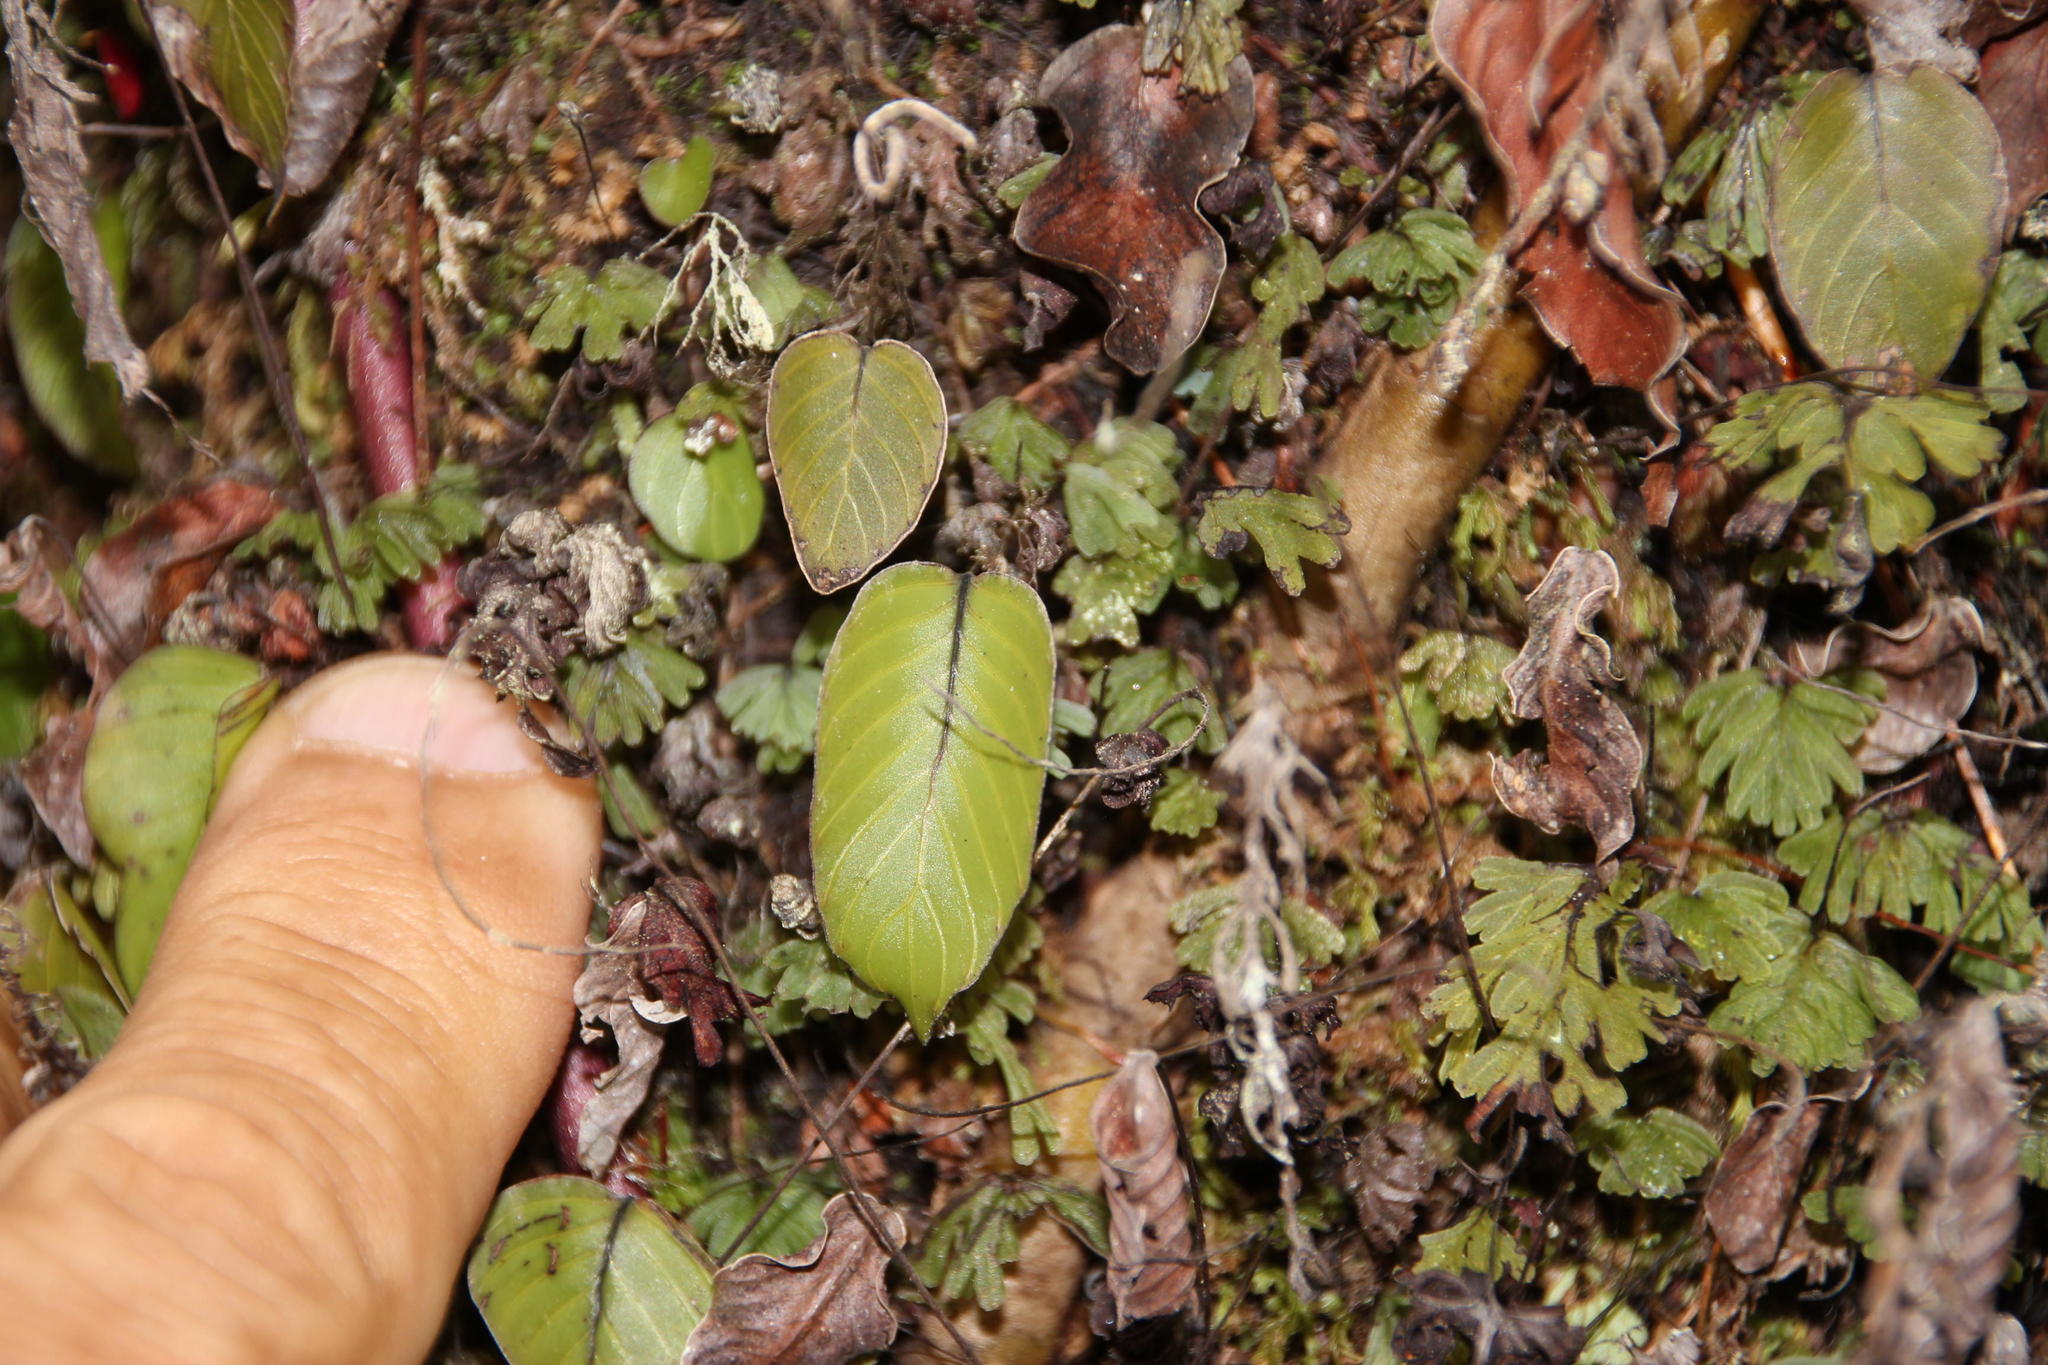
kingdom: Plantae
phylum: Tracheophyta
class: Polypodiopsida
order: Hymenophyllales
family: Hymenophyllaceae
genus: Hymenophyllum
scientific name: Hymenophyllum cruentum
